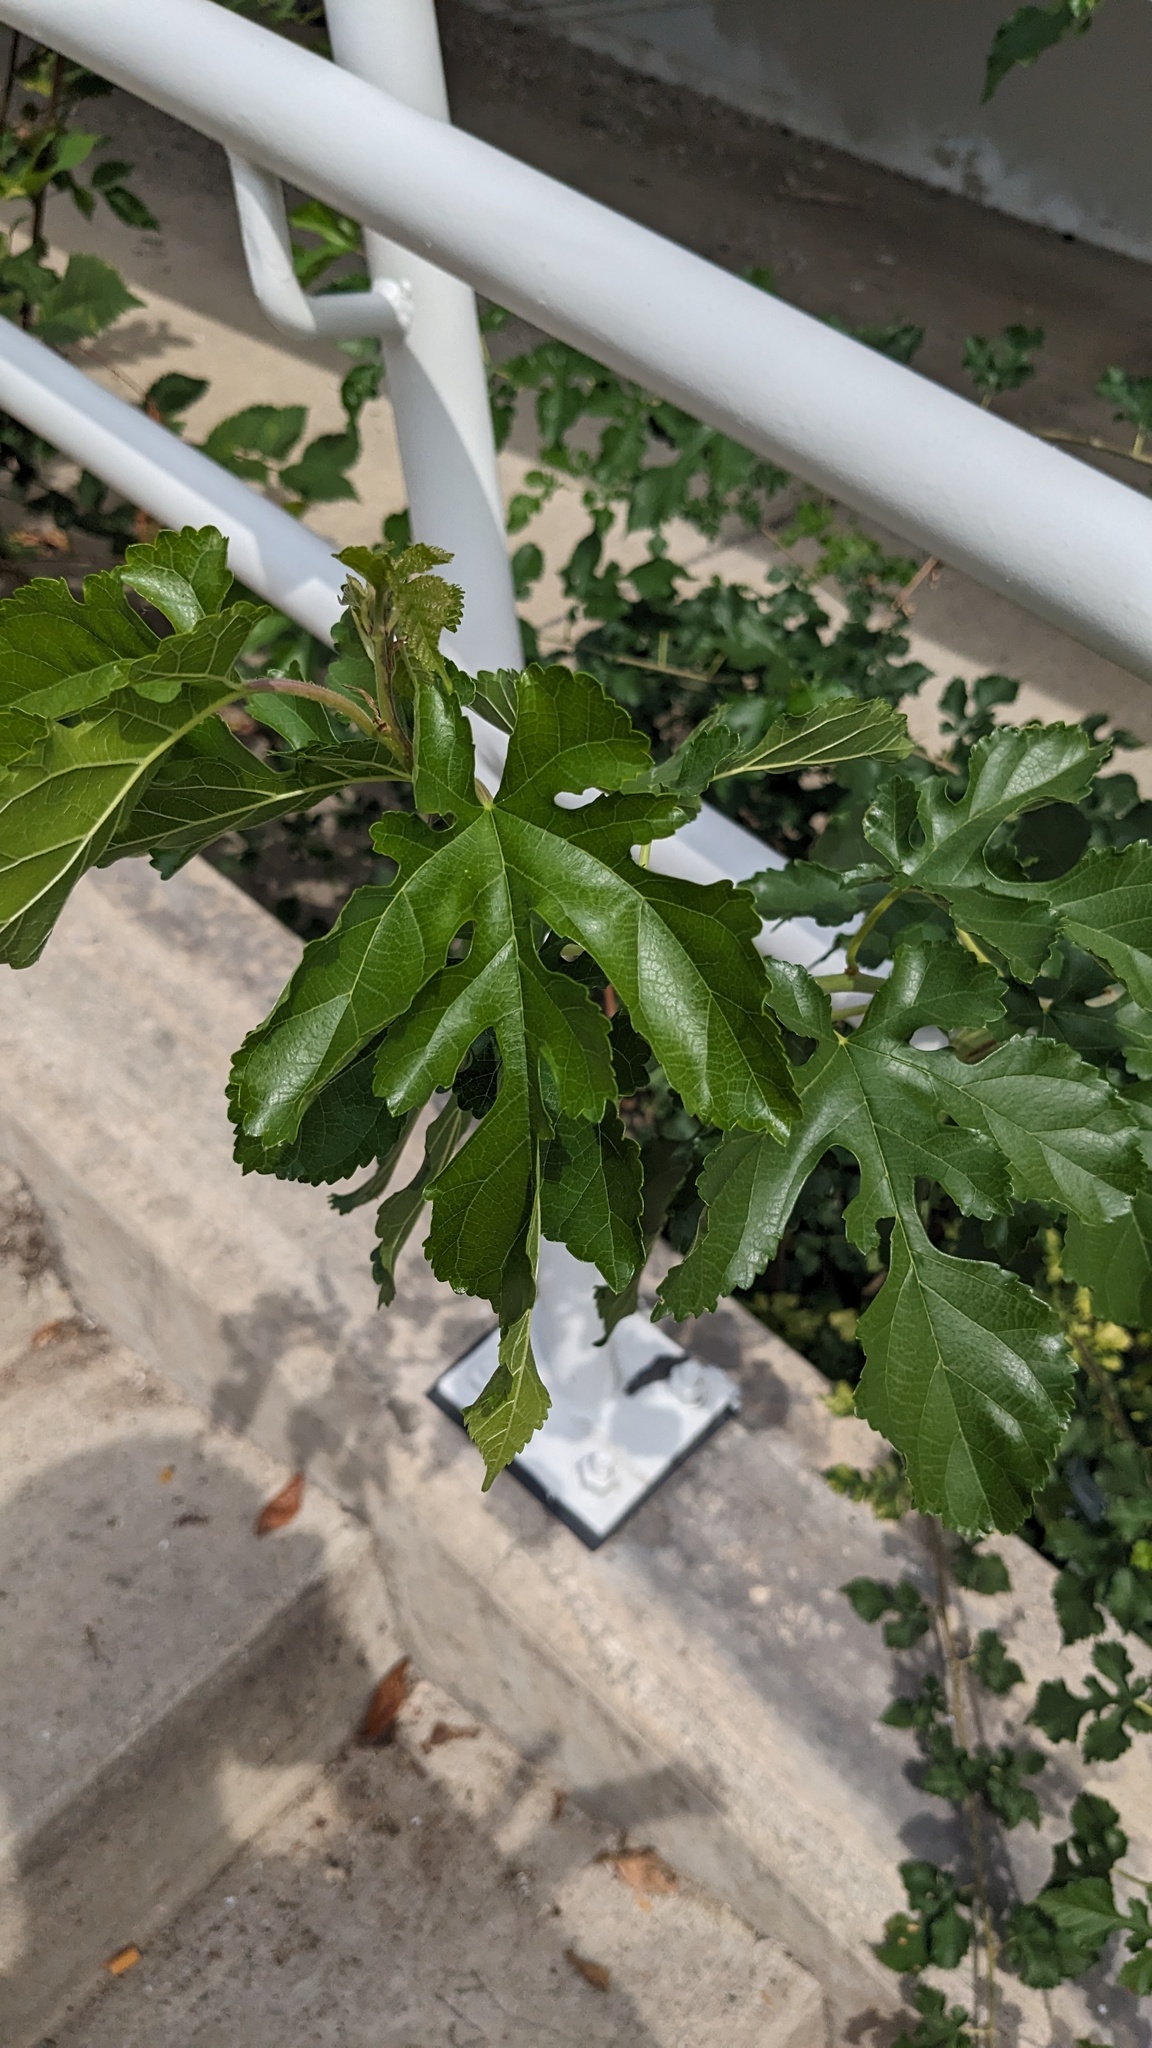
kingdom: Plantae
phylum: Tracheophyta
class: Magnoliopsida
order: Rosales
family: Moraceae
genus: Morus
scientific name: Morus alba
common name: White mulberry
